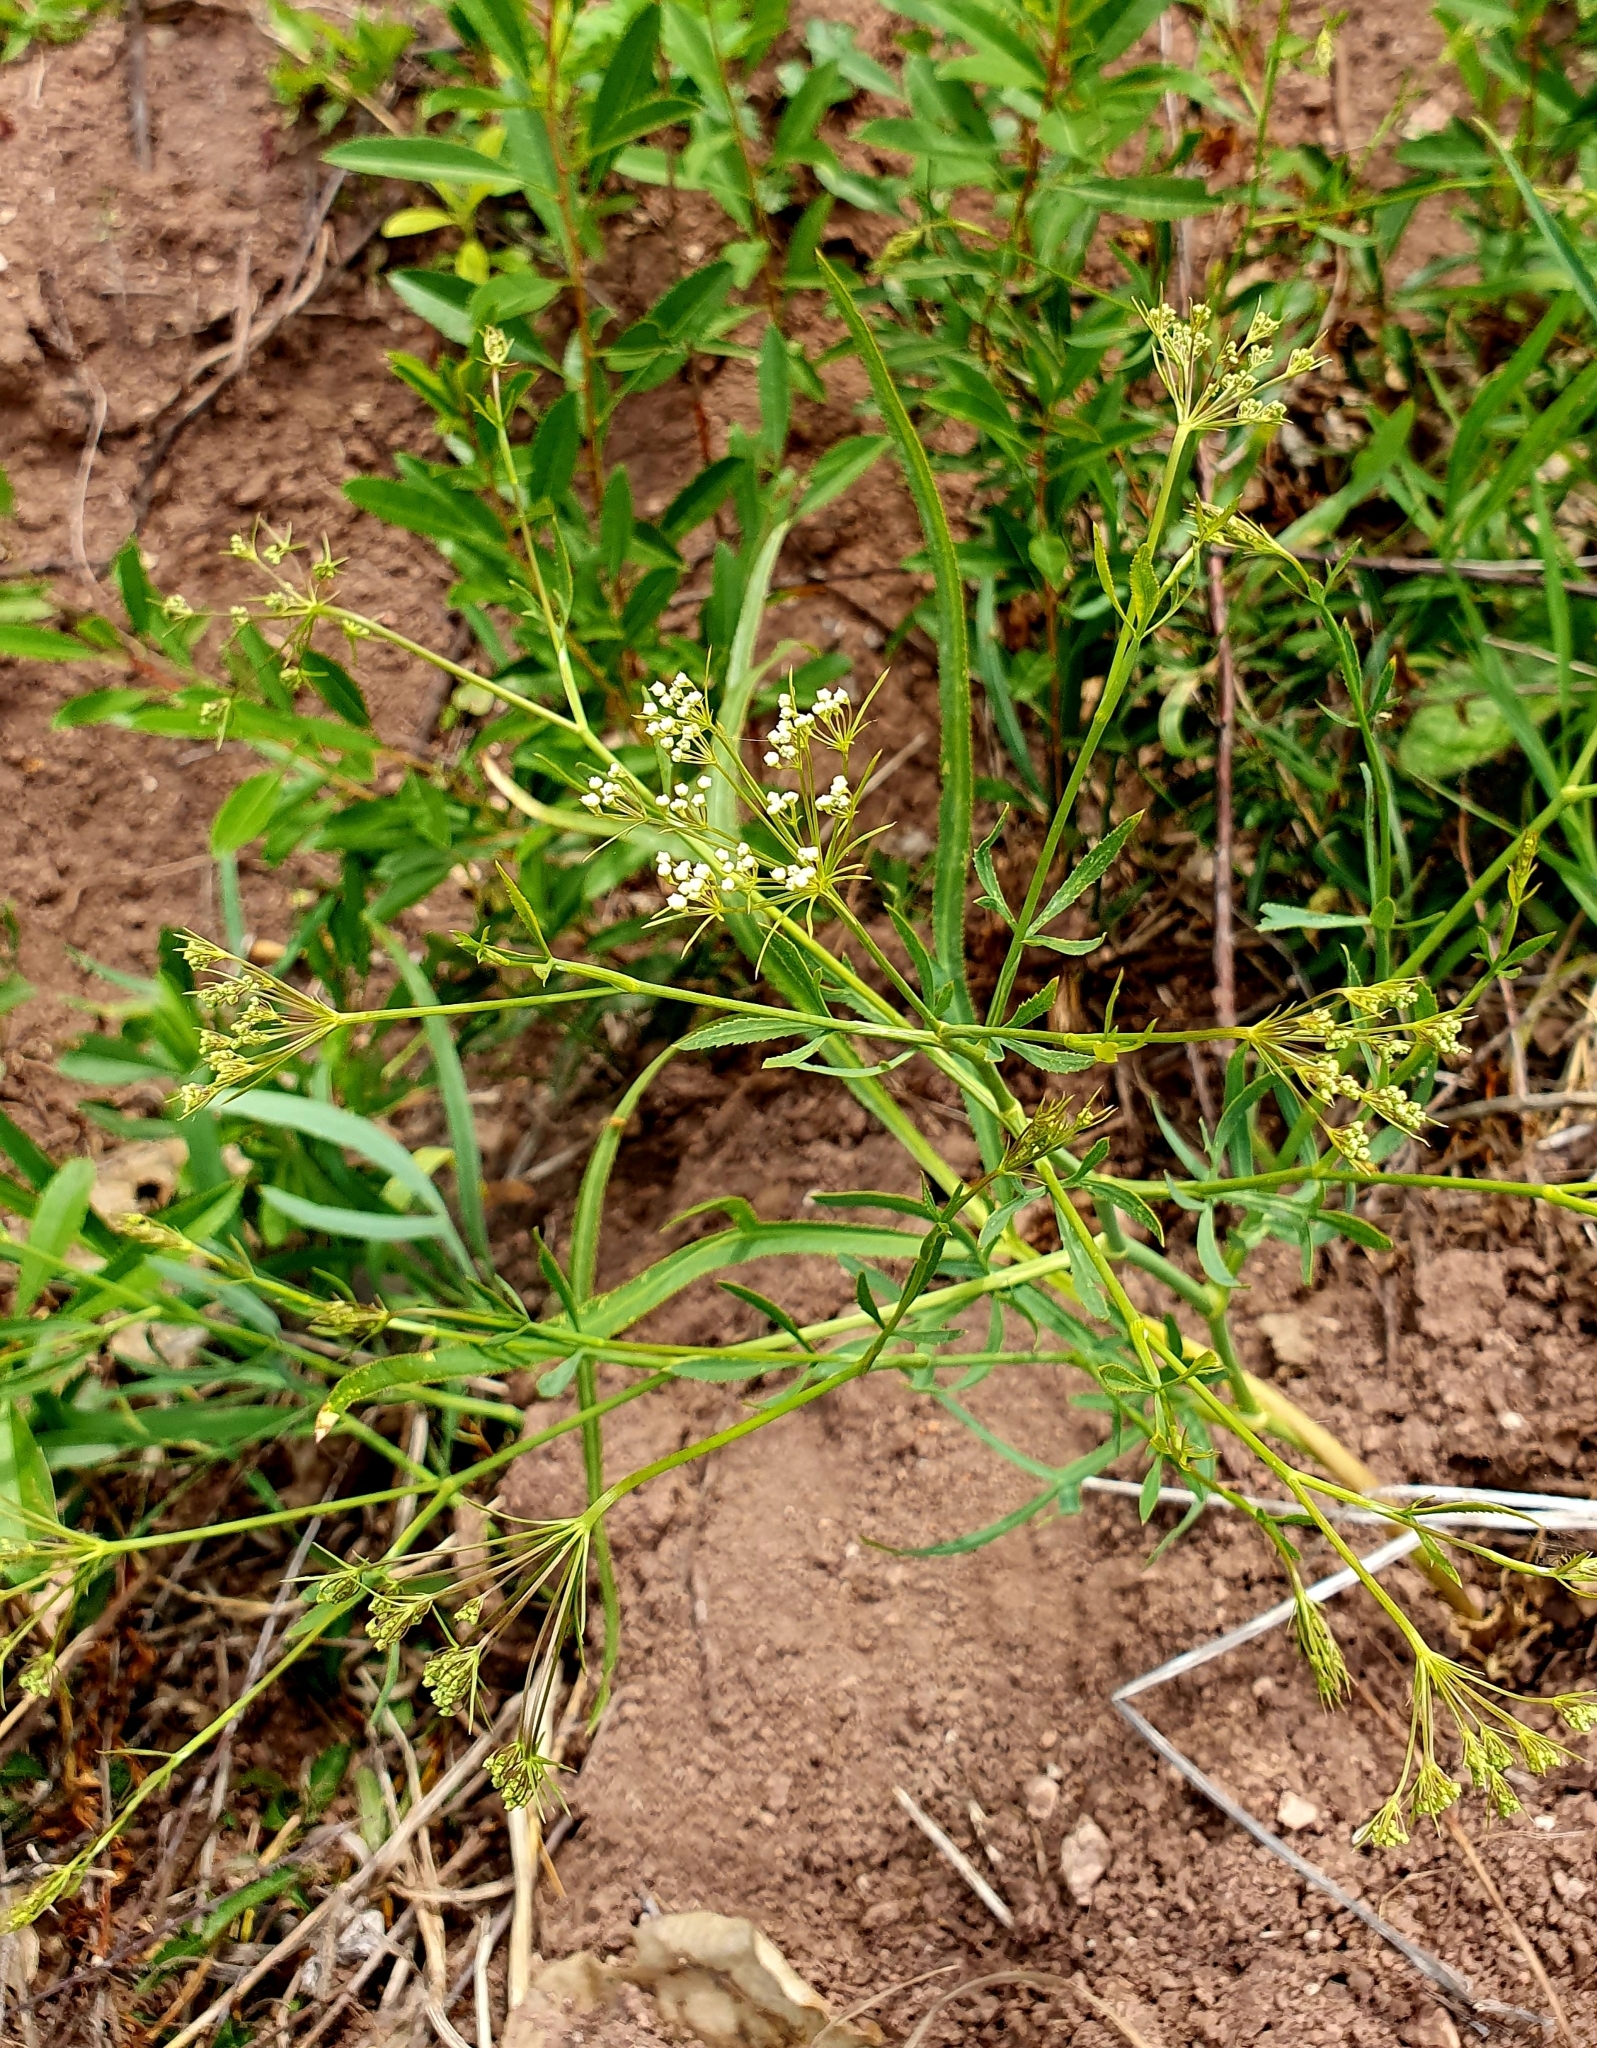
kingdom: Plantae
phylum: Tracheophyta
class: Magnoliopsida
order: Apiales
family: Apiaceae
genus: Falcaria
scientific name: Falcaria vulgaris
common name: Longleaf
